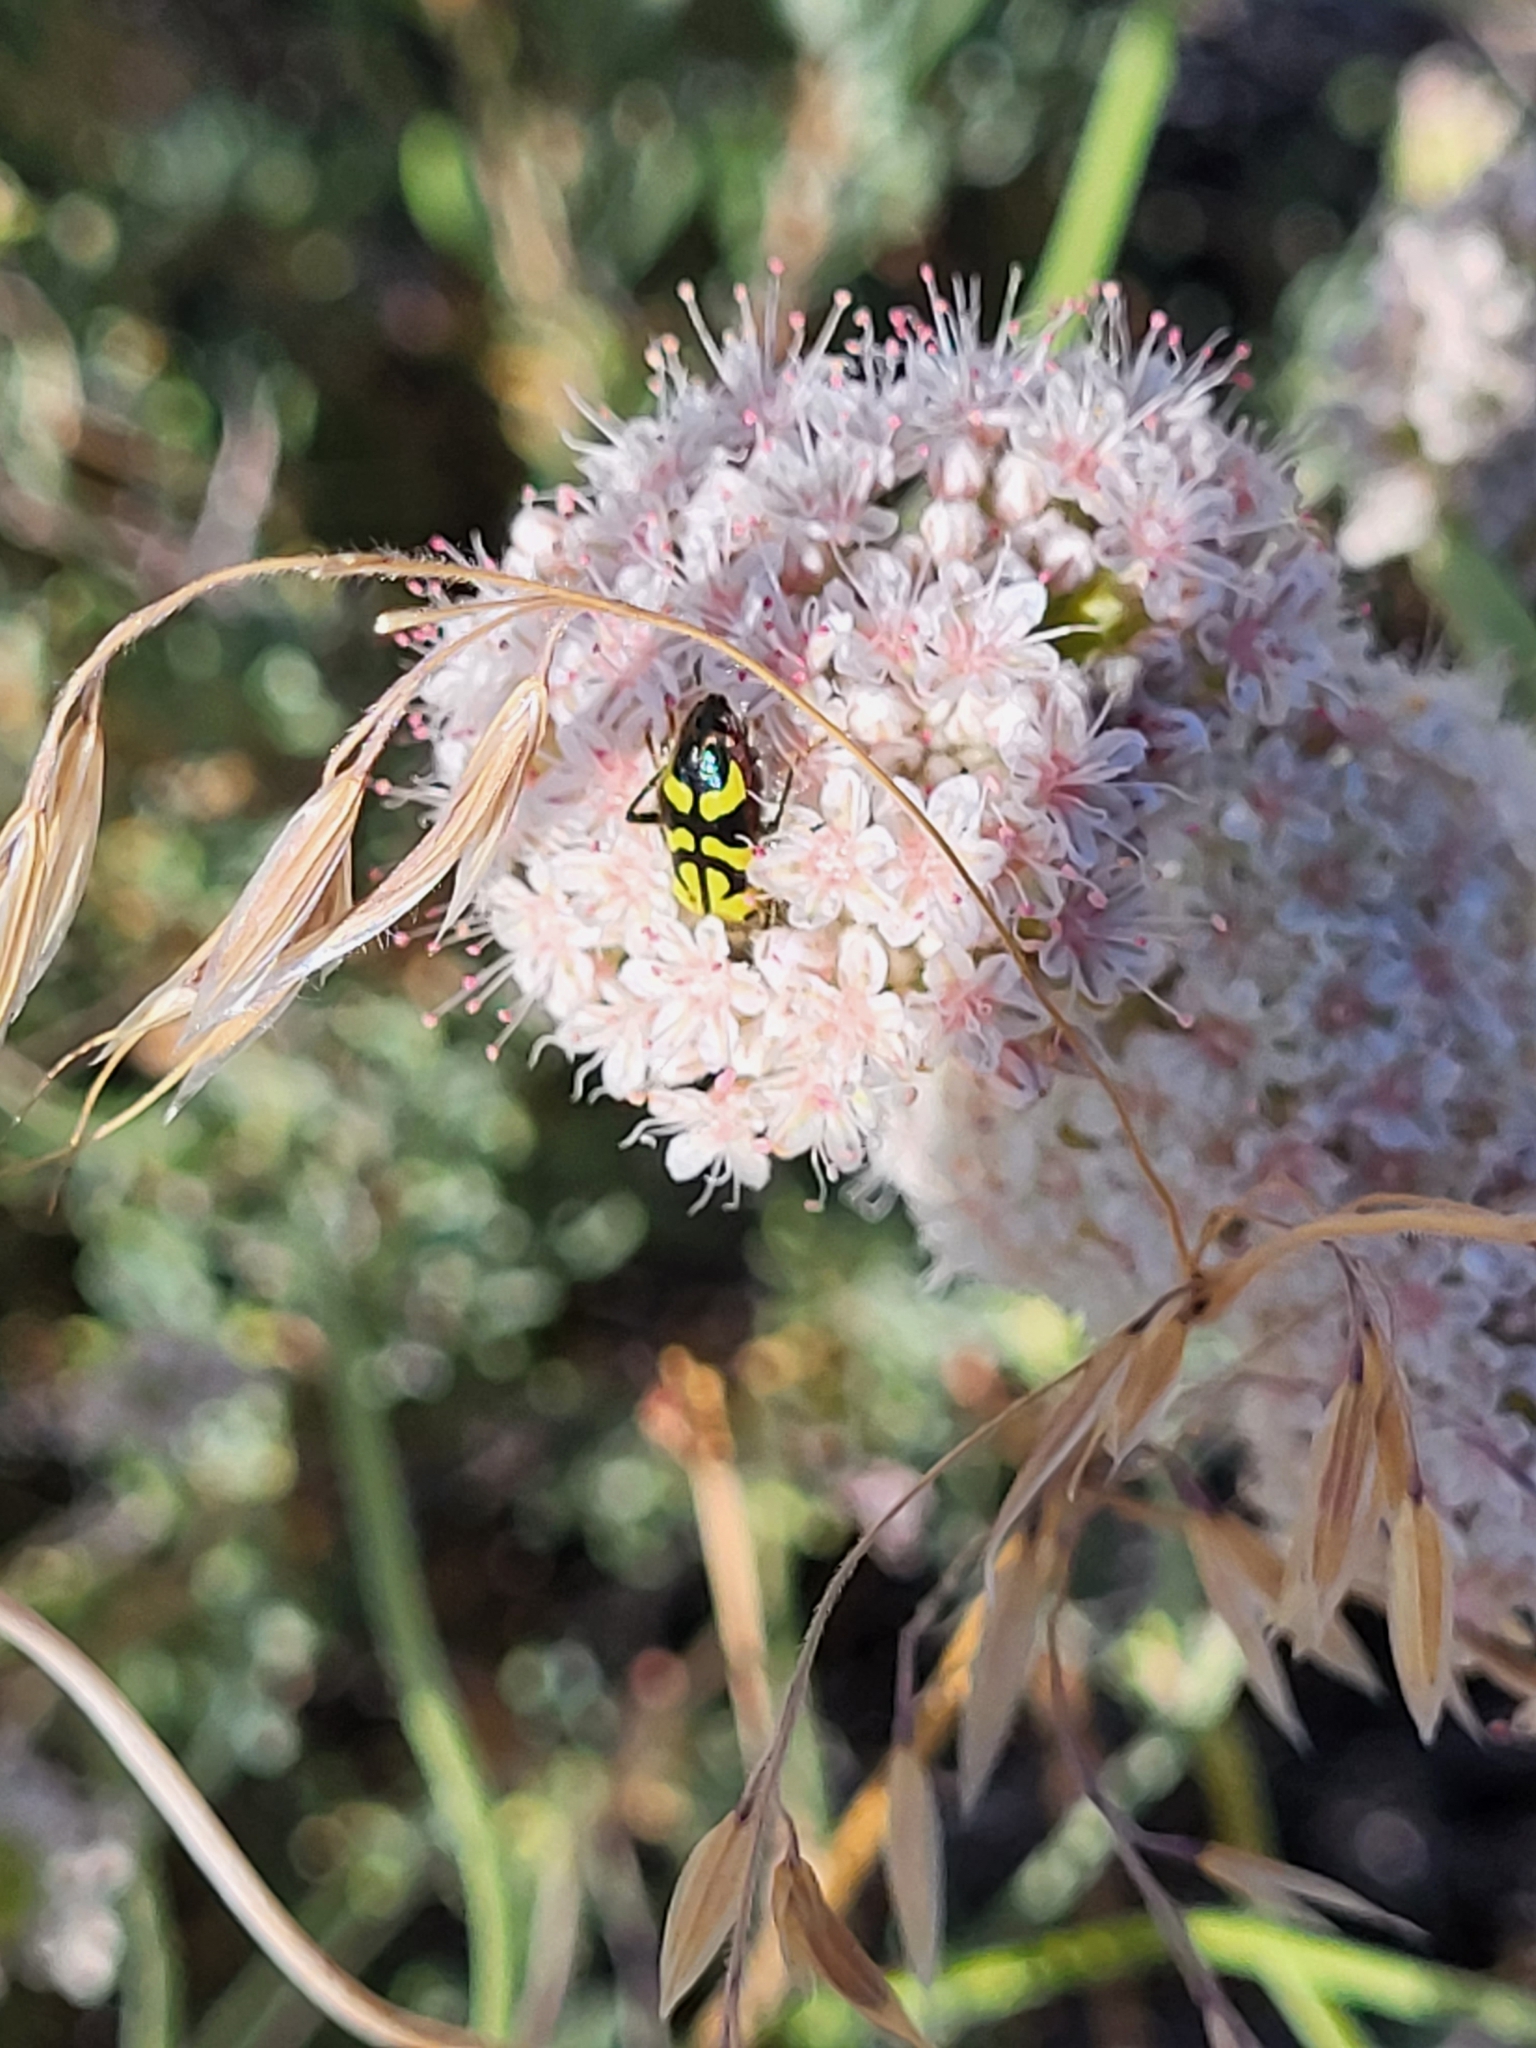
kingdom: Animalia
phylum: Arthropoda
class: Insecta
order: Coleoptera
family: Cleridae
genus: Trichodes
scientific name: Trichodes ornatus
